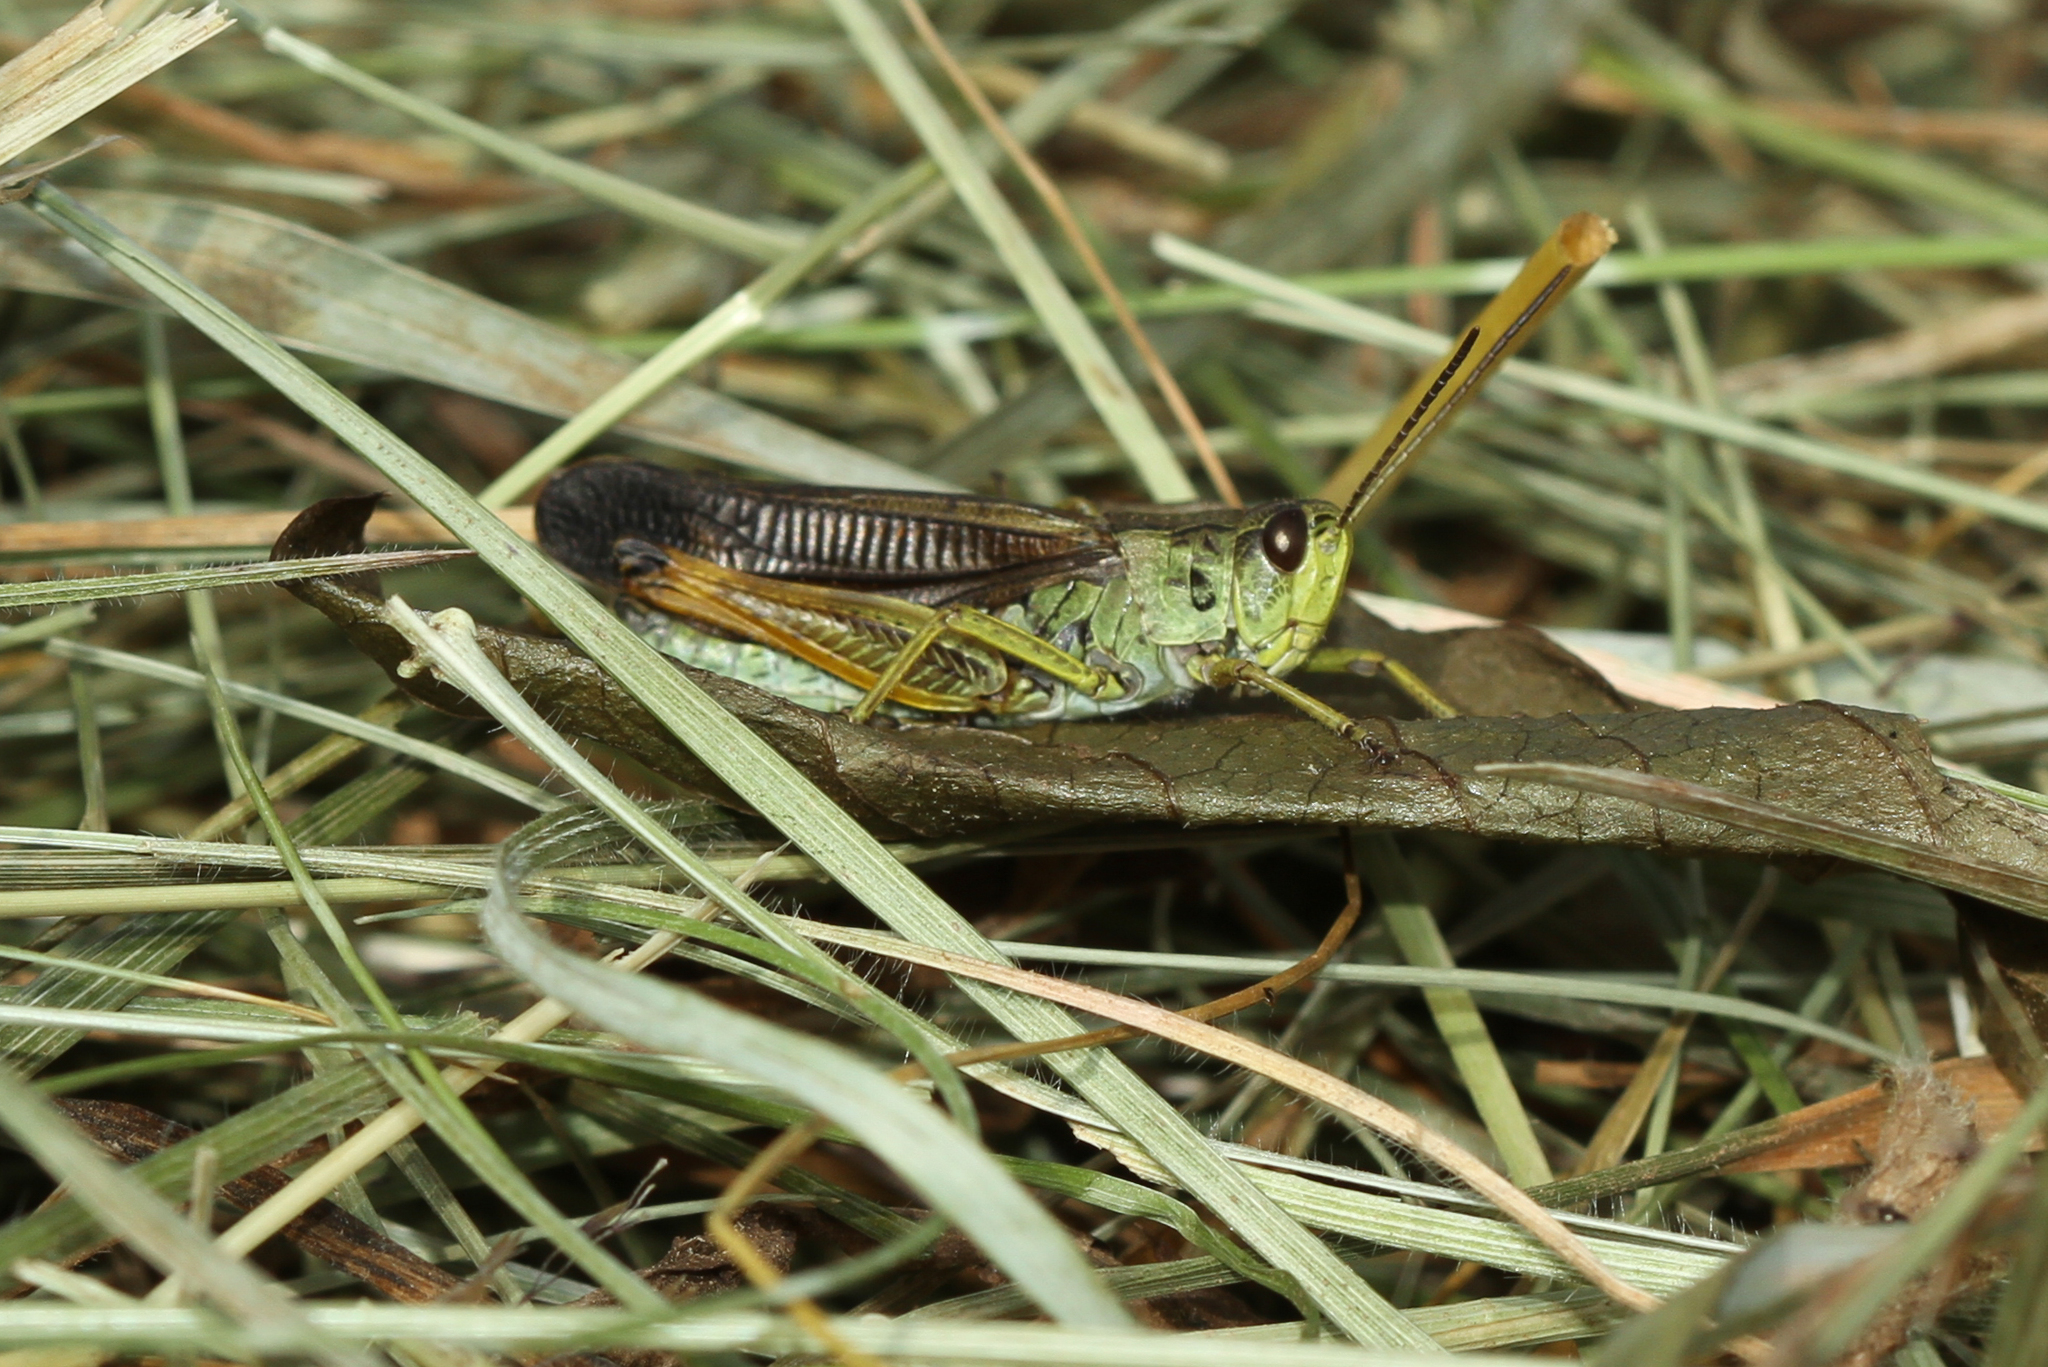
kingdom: Animalia
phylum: Arthropoda
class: Insecta
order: Orthoptera
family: Acrididae
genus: Stauroderus
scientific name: Stauroderus scalaris
